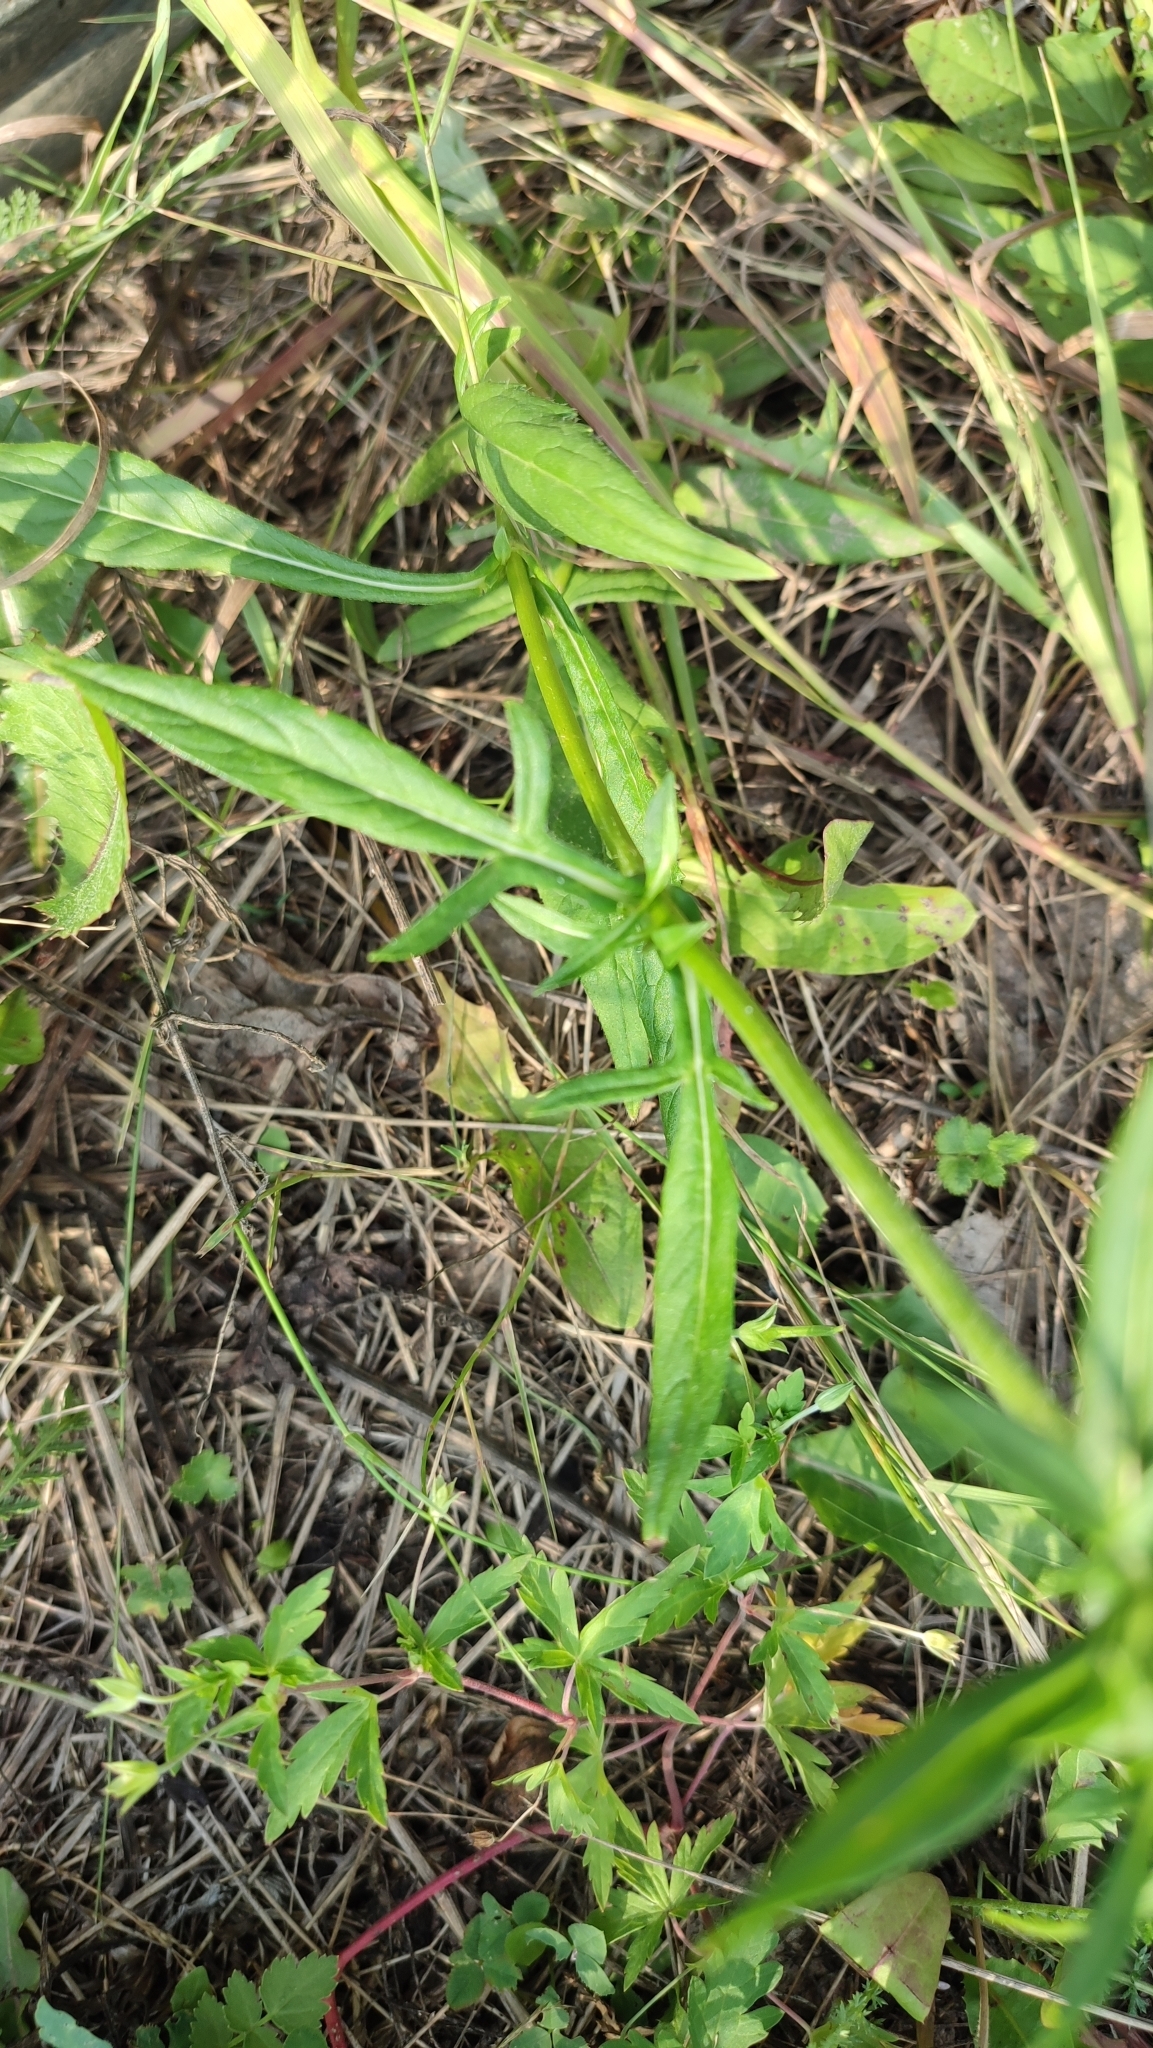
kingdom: Plantae
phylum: Tracheophyta
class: Magnoliopsida
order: Dipsacales
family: Caprifoliaceae
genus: Knautia
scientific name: Knautia arvensis
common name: Field scabiosa
